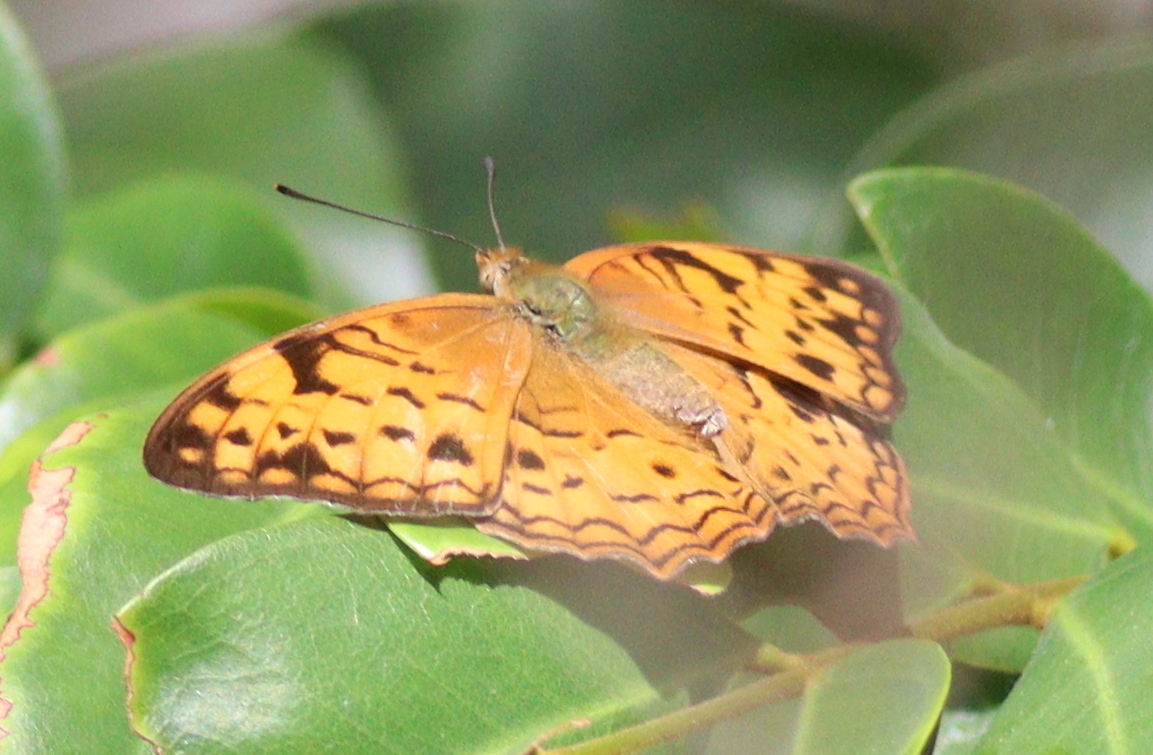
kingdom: Animalia
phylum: Arthropoda
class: Insecta
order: Lepidoptera
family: Nymphalidae
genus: Lachnoptera
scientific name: Lachnoptera ayresii
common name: Blotched leopard
